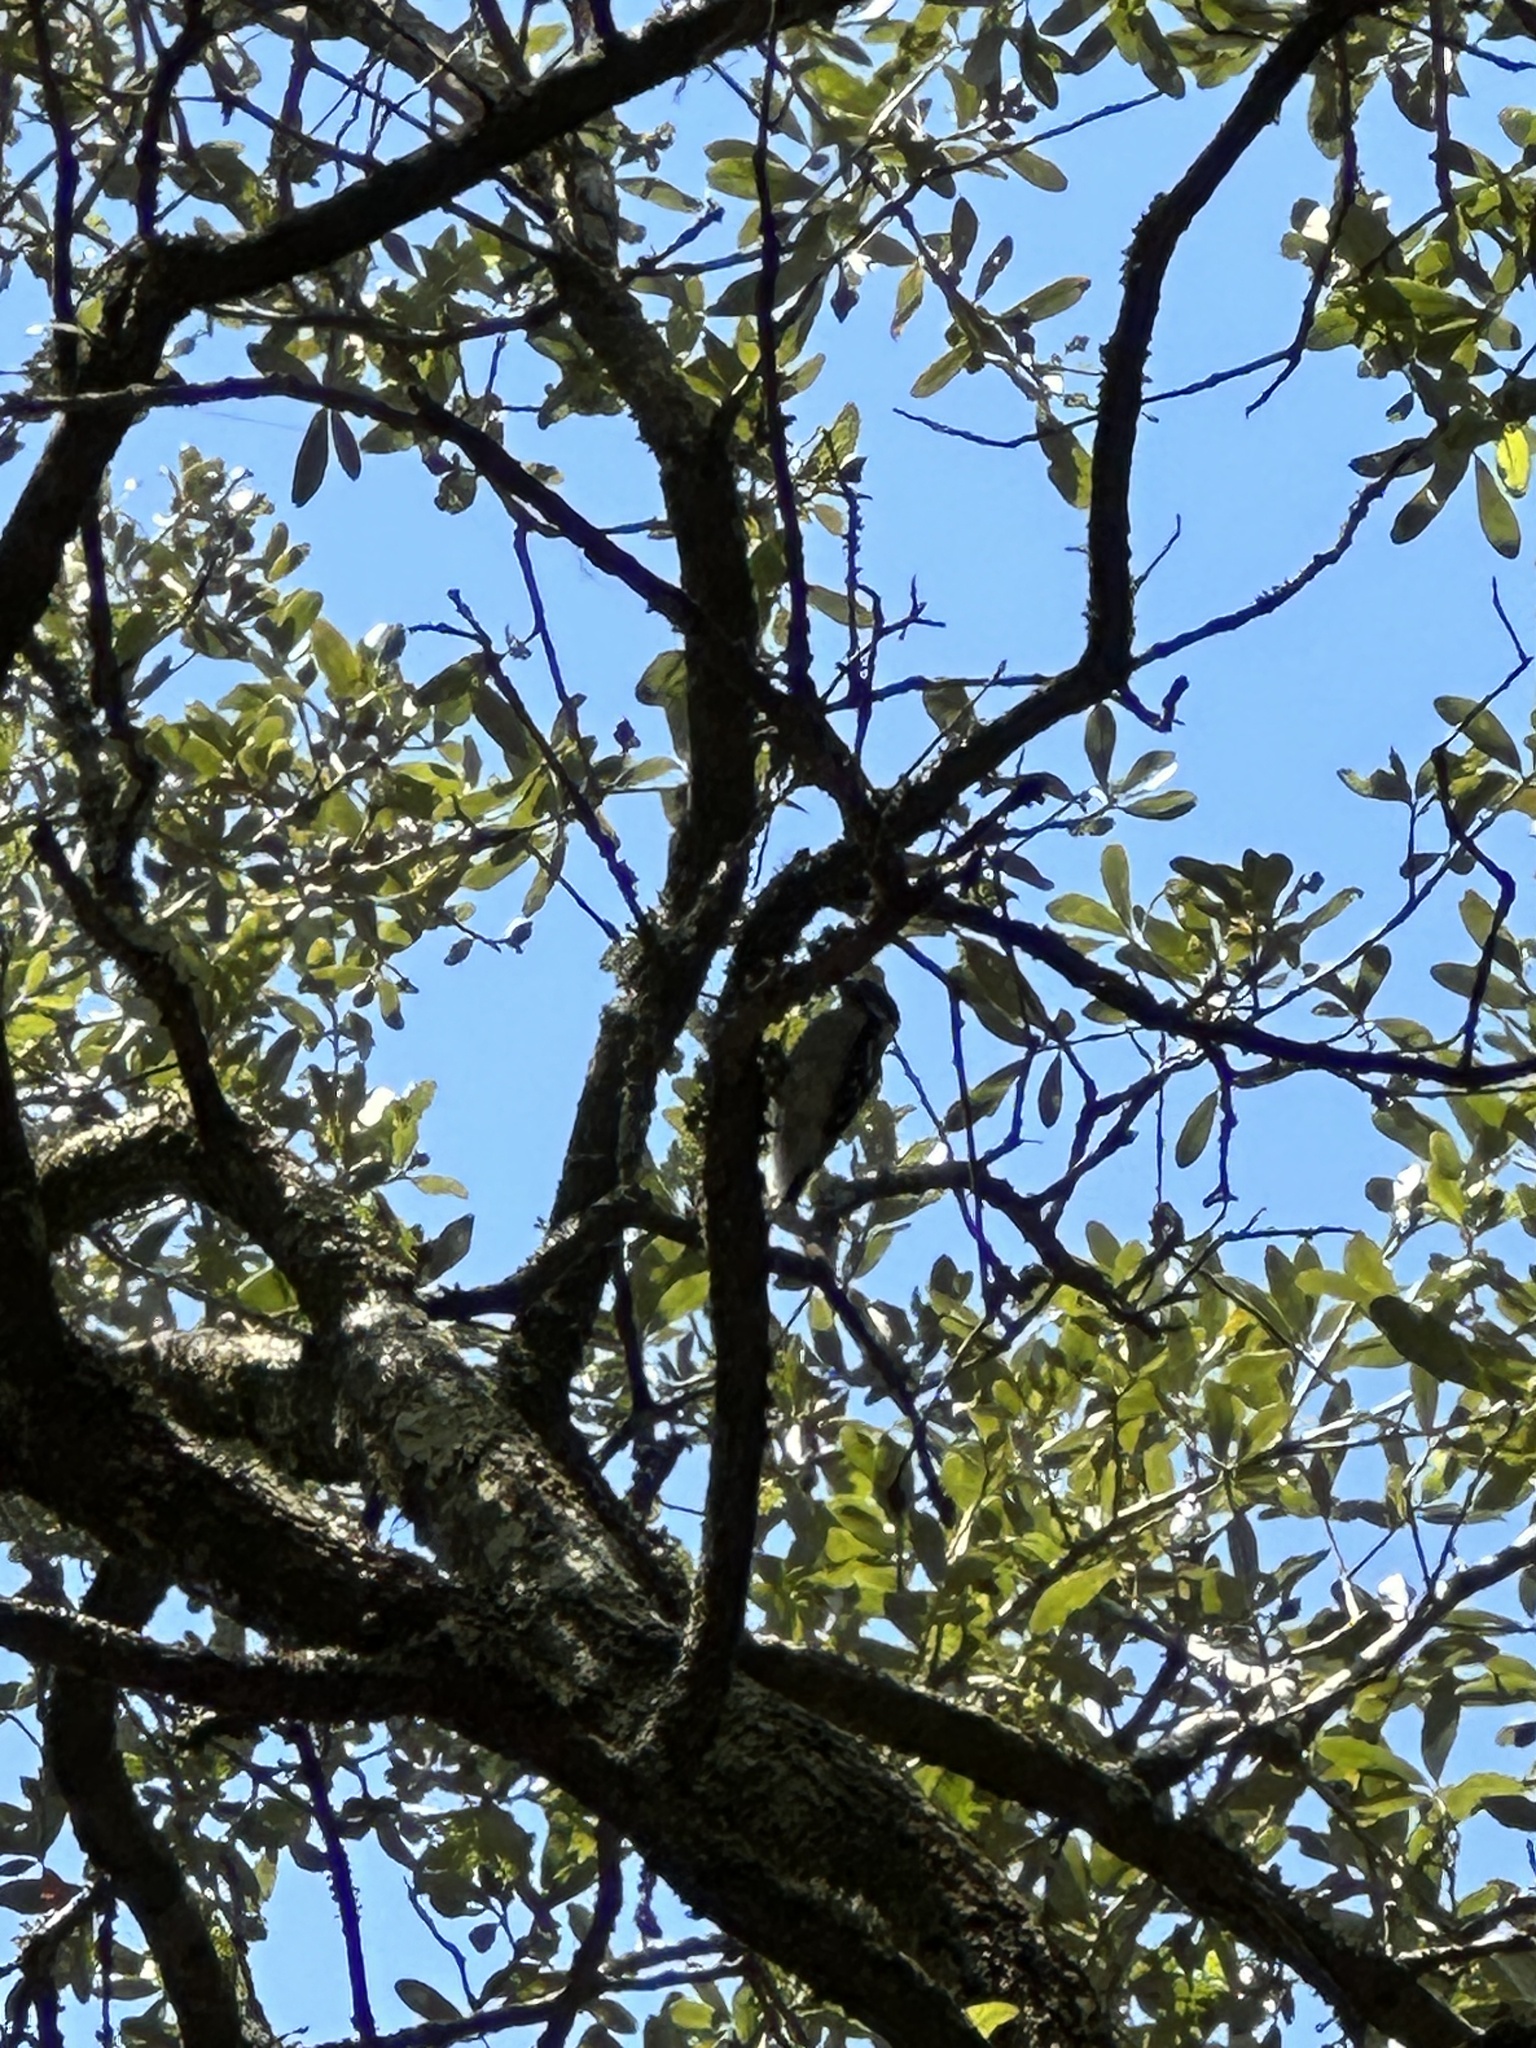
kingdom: Animalia
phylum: Chordata
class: Aves
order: Piciformes
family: Picidae
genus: Dryobates
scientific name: Dryobates pubescens
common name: Downy woodpecker
